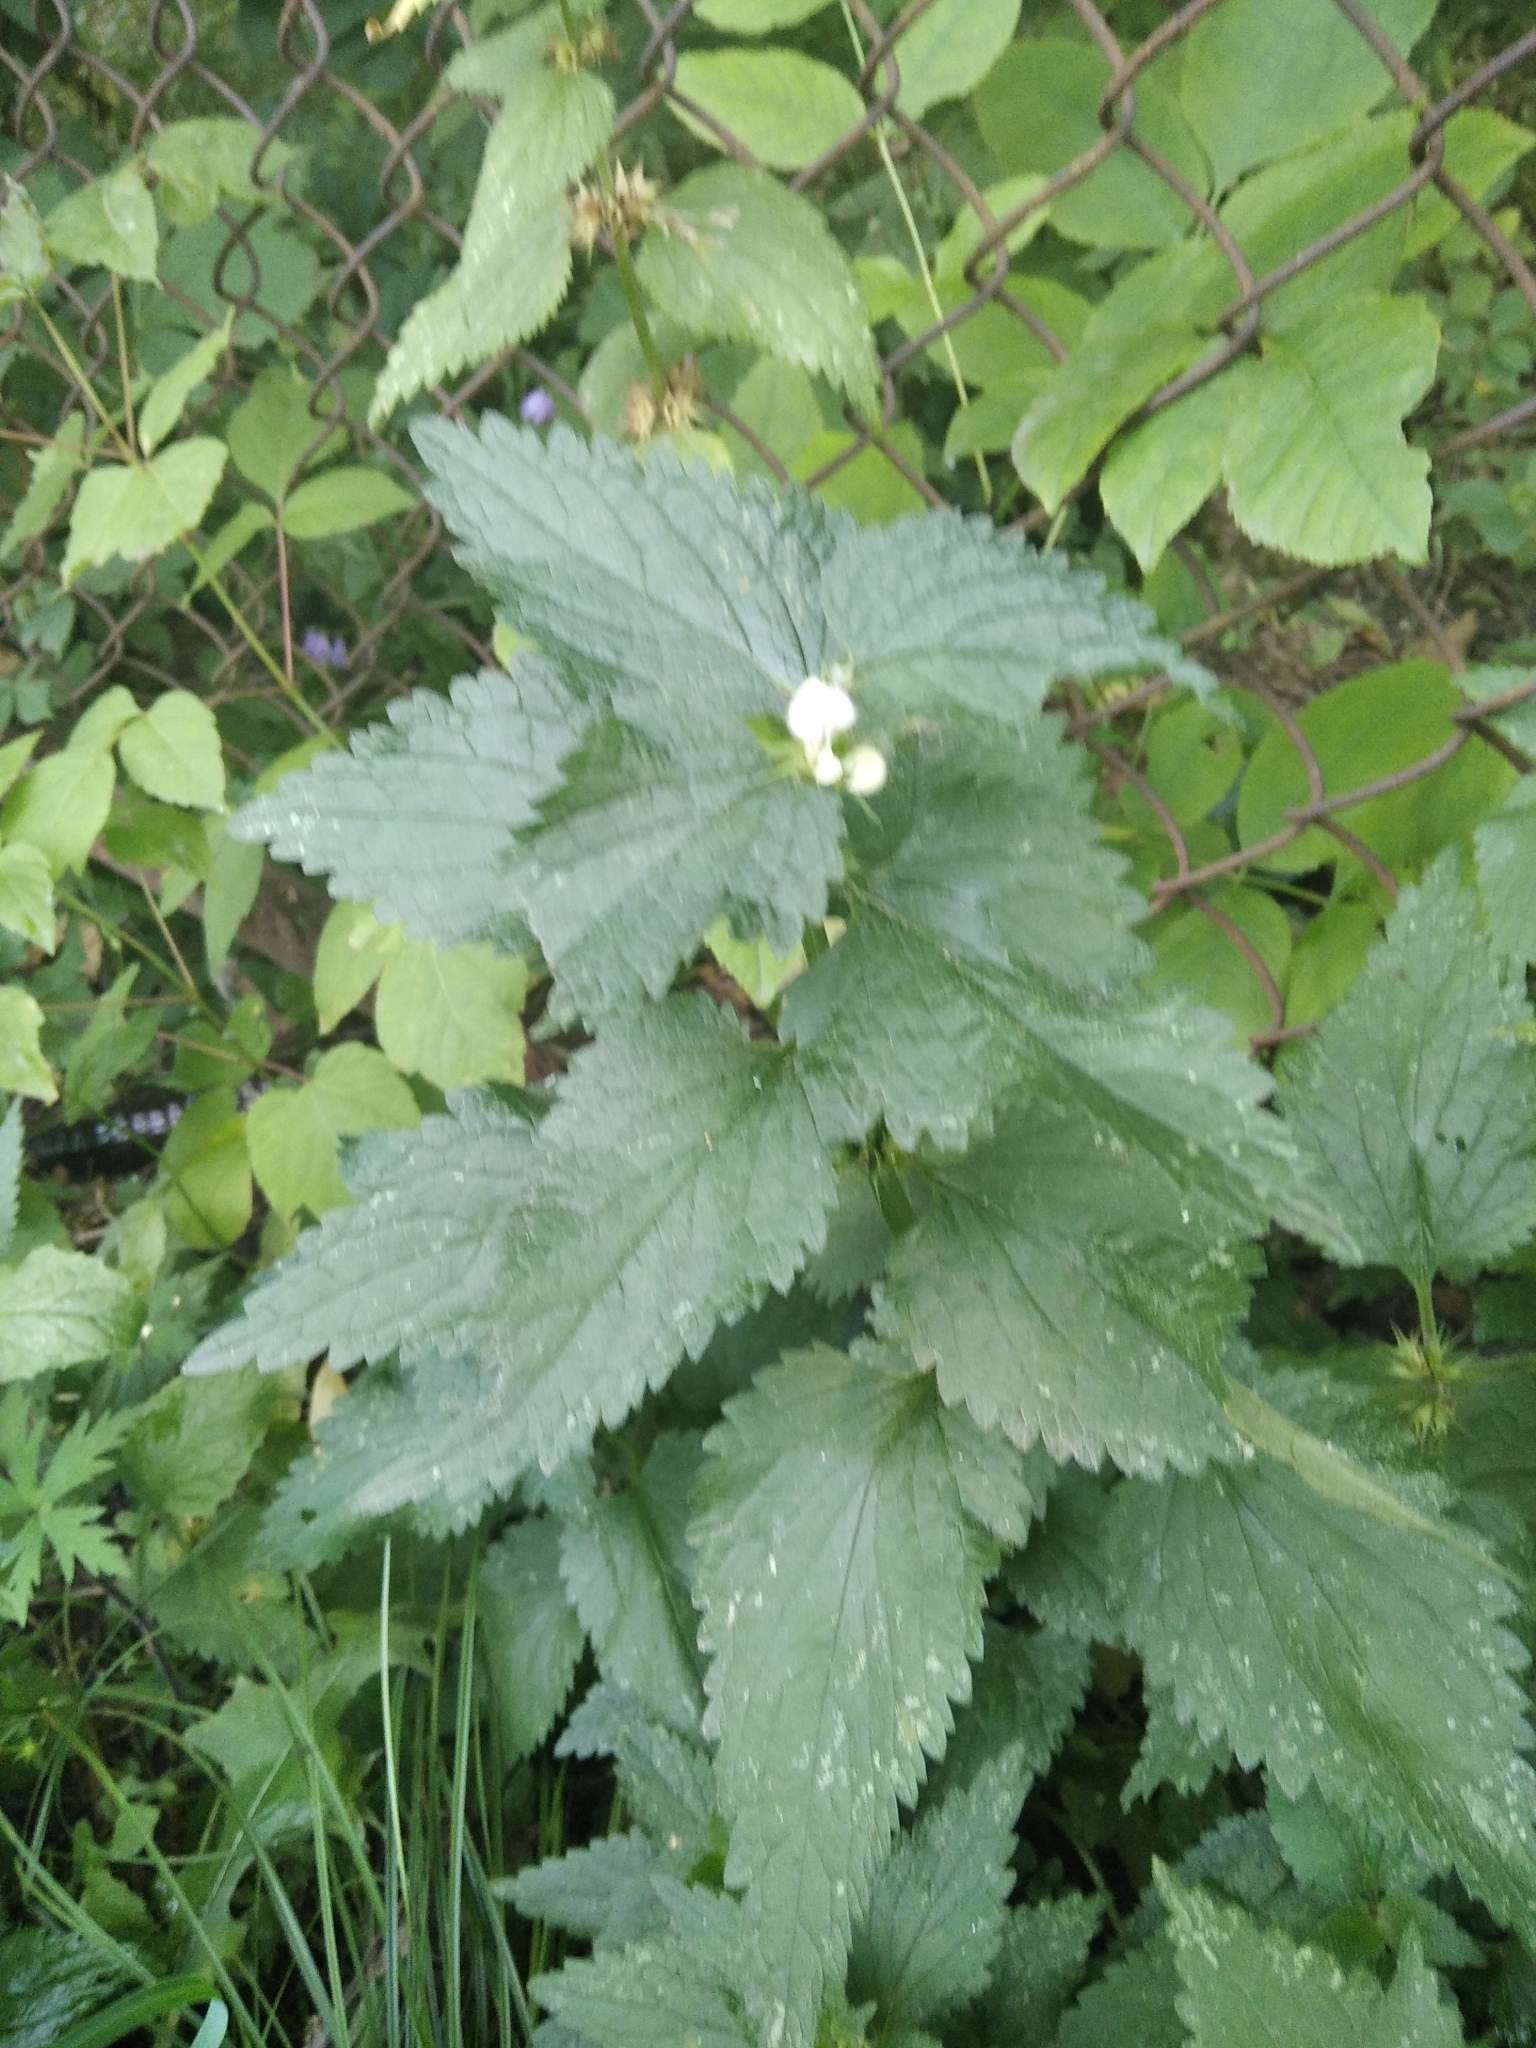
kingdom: Plantae
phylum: Tracheophyta
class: Magnoliopsida
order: Lamiales
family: Lamiaceae
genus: Lamium
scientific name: Lamium album
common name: White dead-nettle
